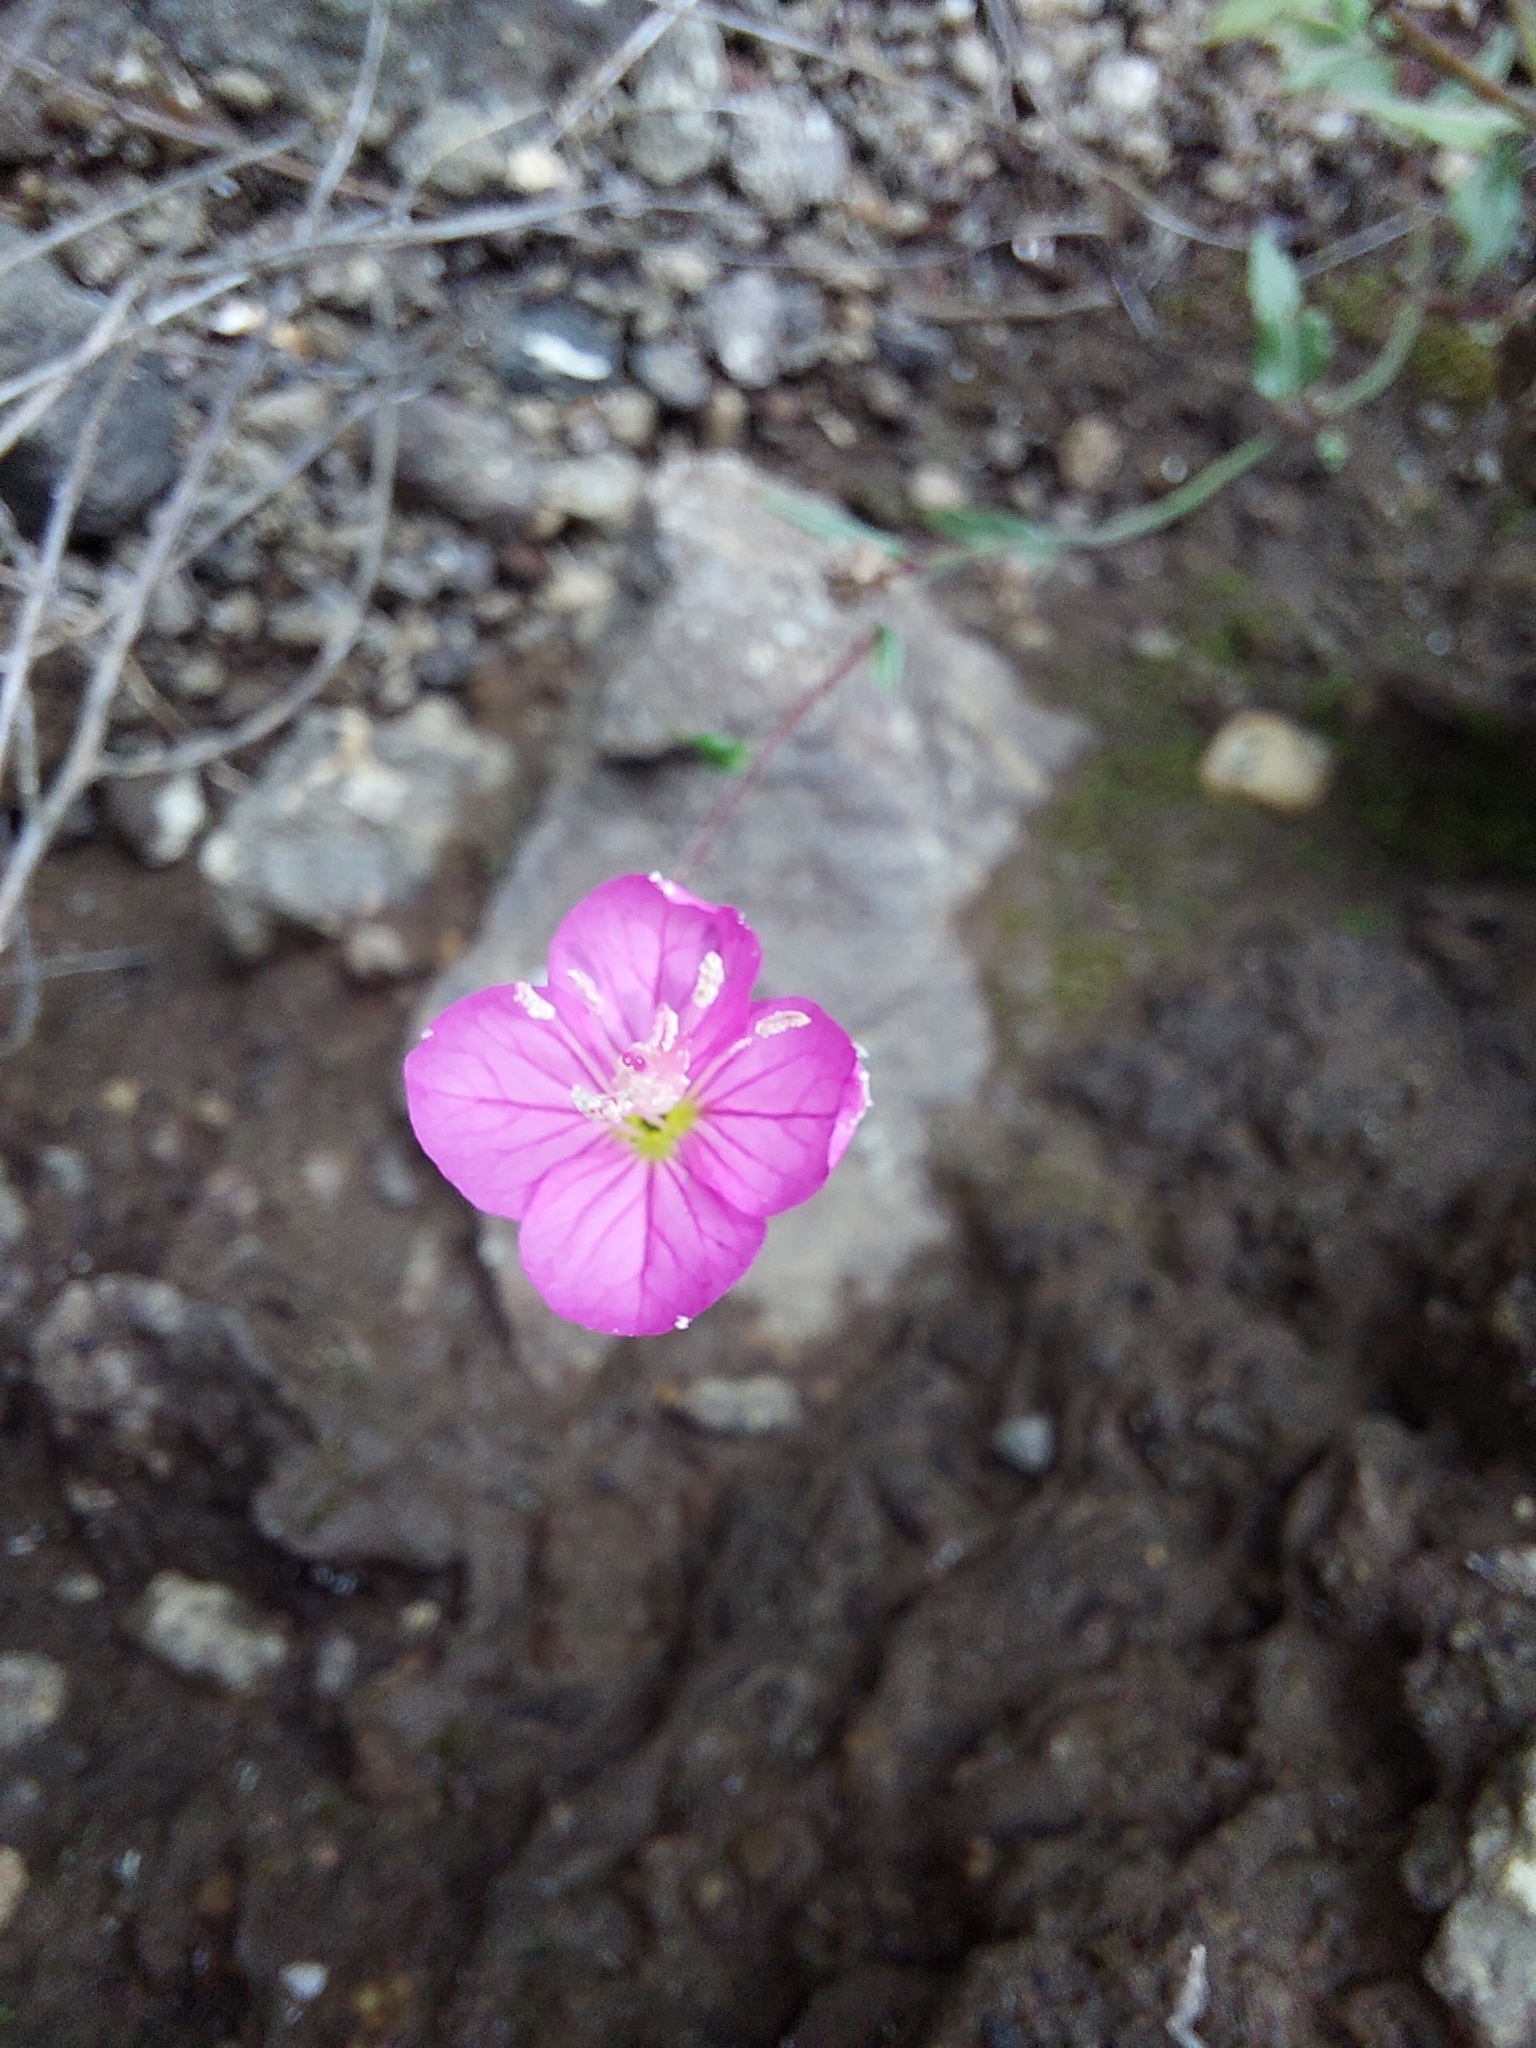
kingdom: Plantae
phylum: Tracheophyta
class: Magnoliopsida
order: Myrtales
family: Onagraceae
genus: Oenothera
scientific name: Oenothera rosea
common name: Rosy evening-primrose
